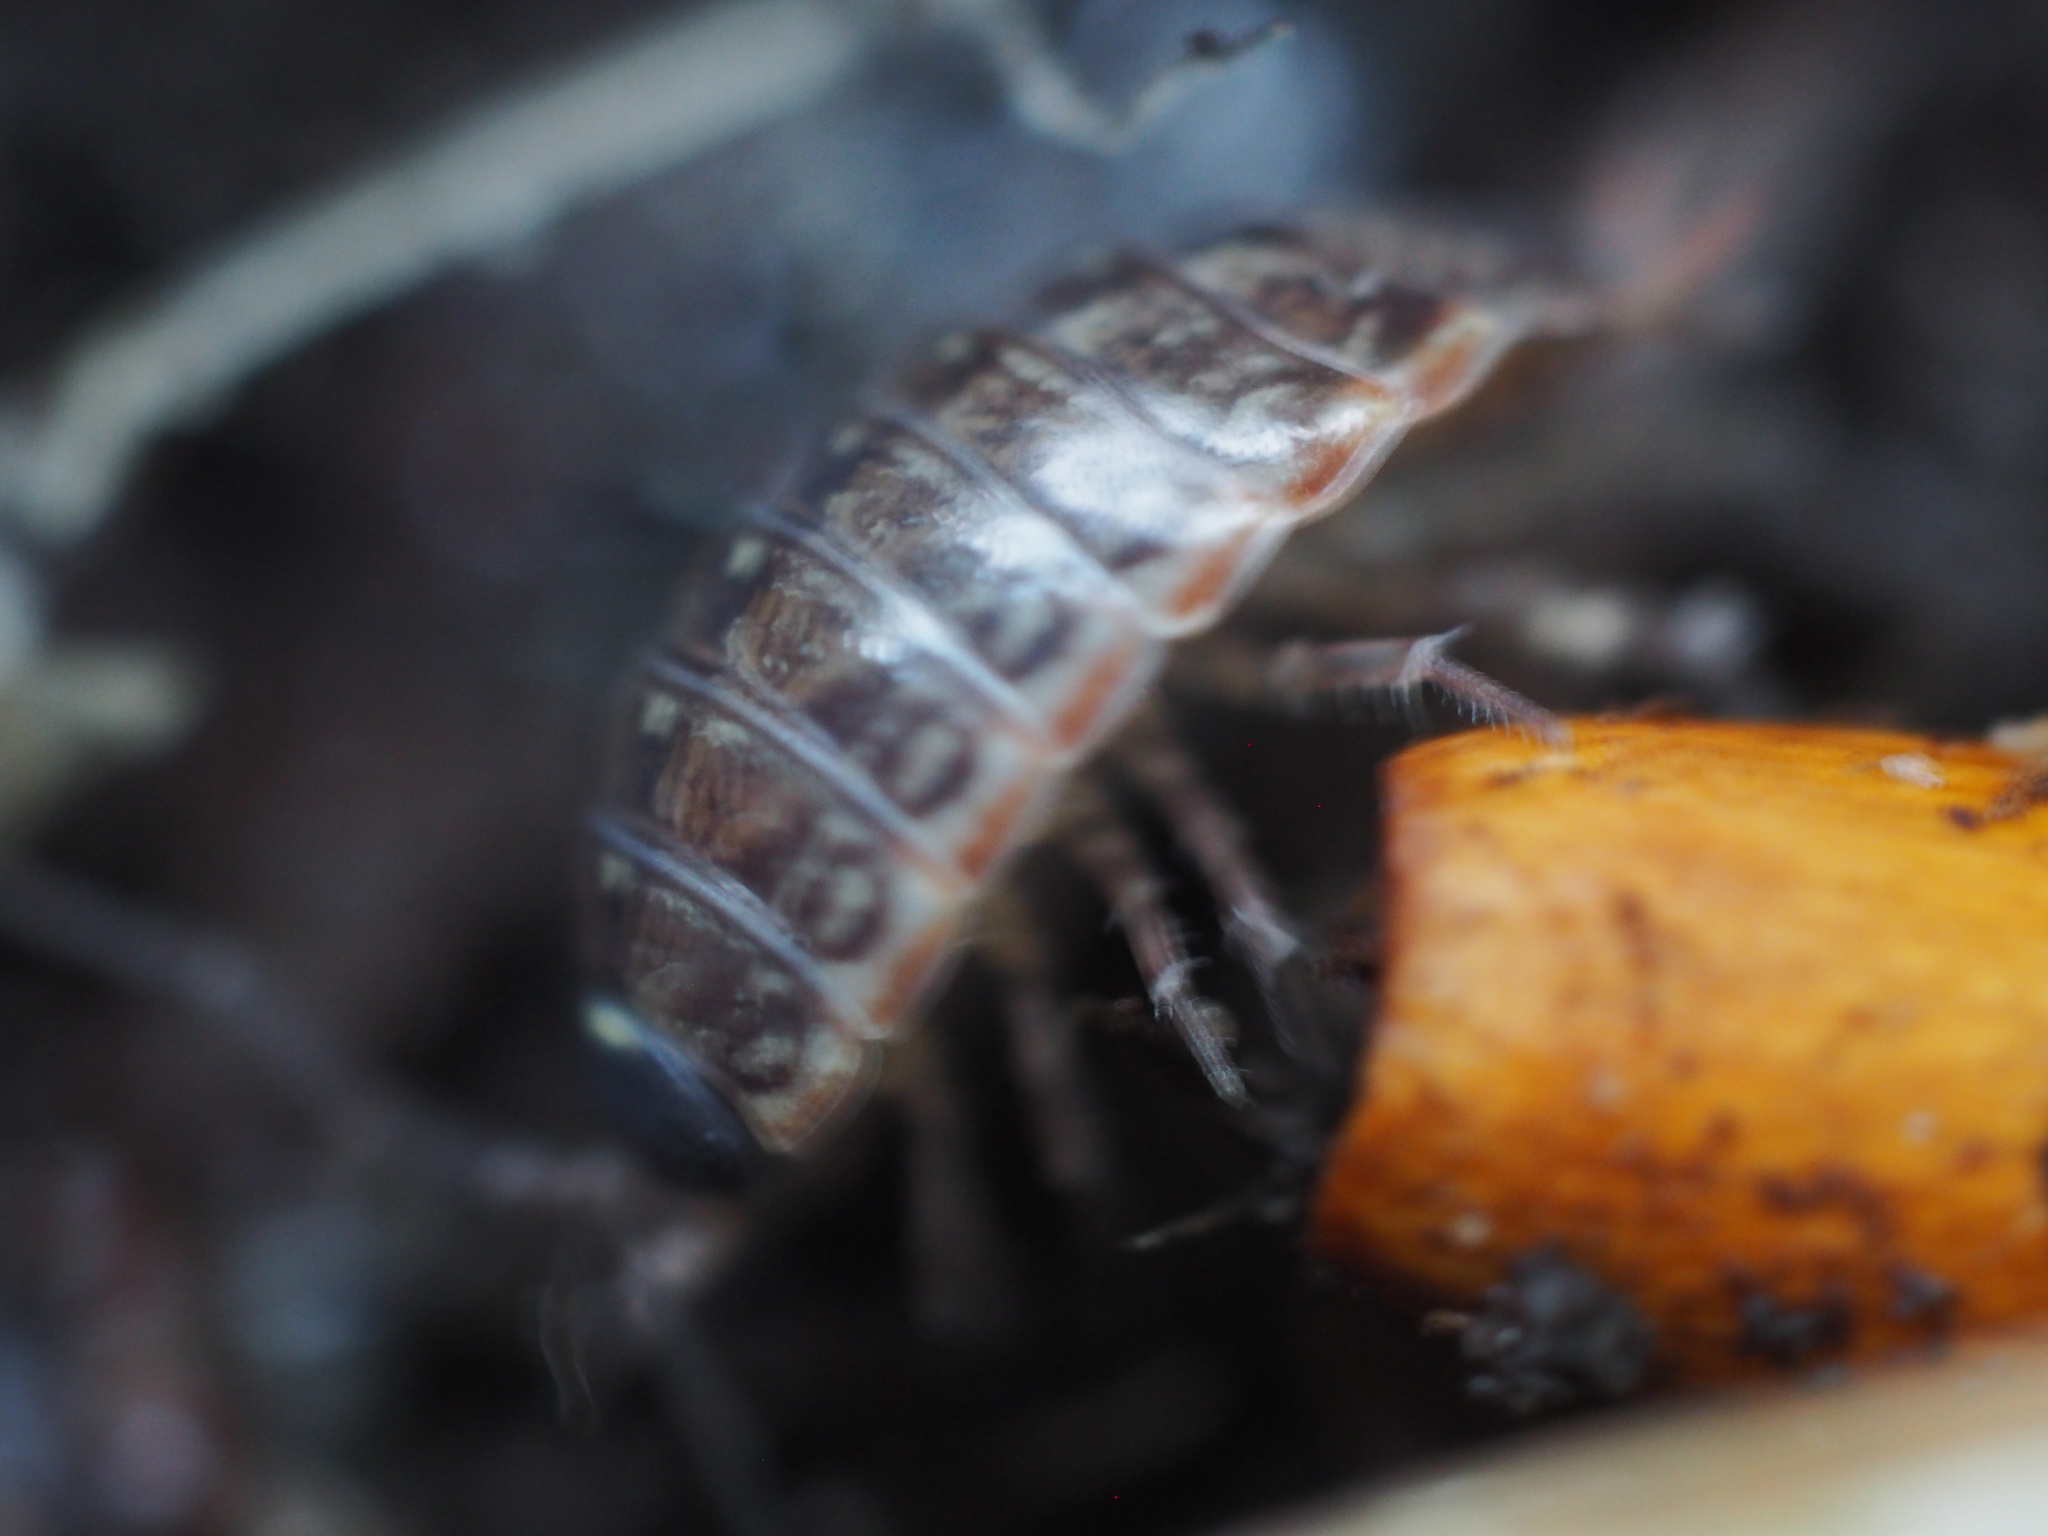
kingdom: Animalia
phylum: Arthropoda
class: Malacostraca
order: Isopoda
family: Philosciidae
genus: Philoscia
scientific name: Philoscia muscorum
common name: Common striped woodlouse
